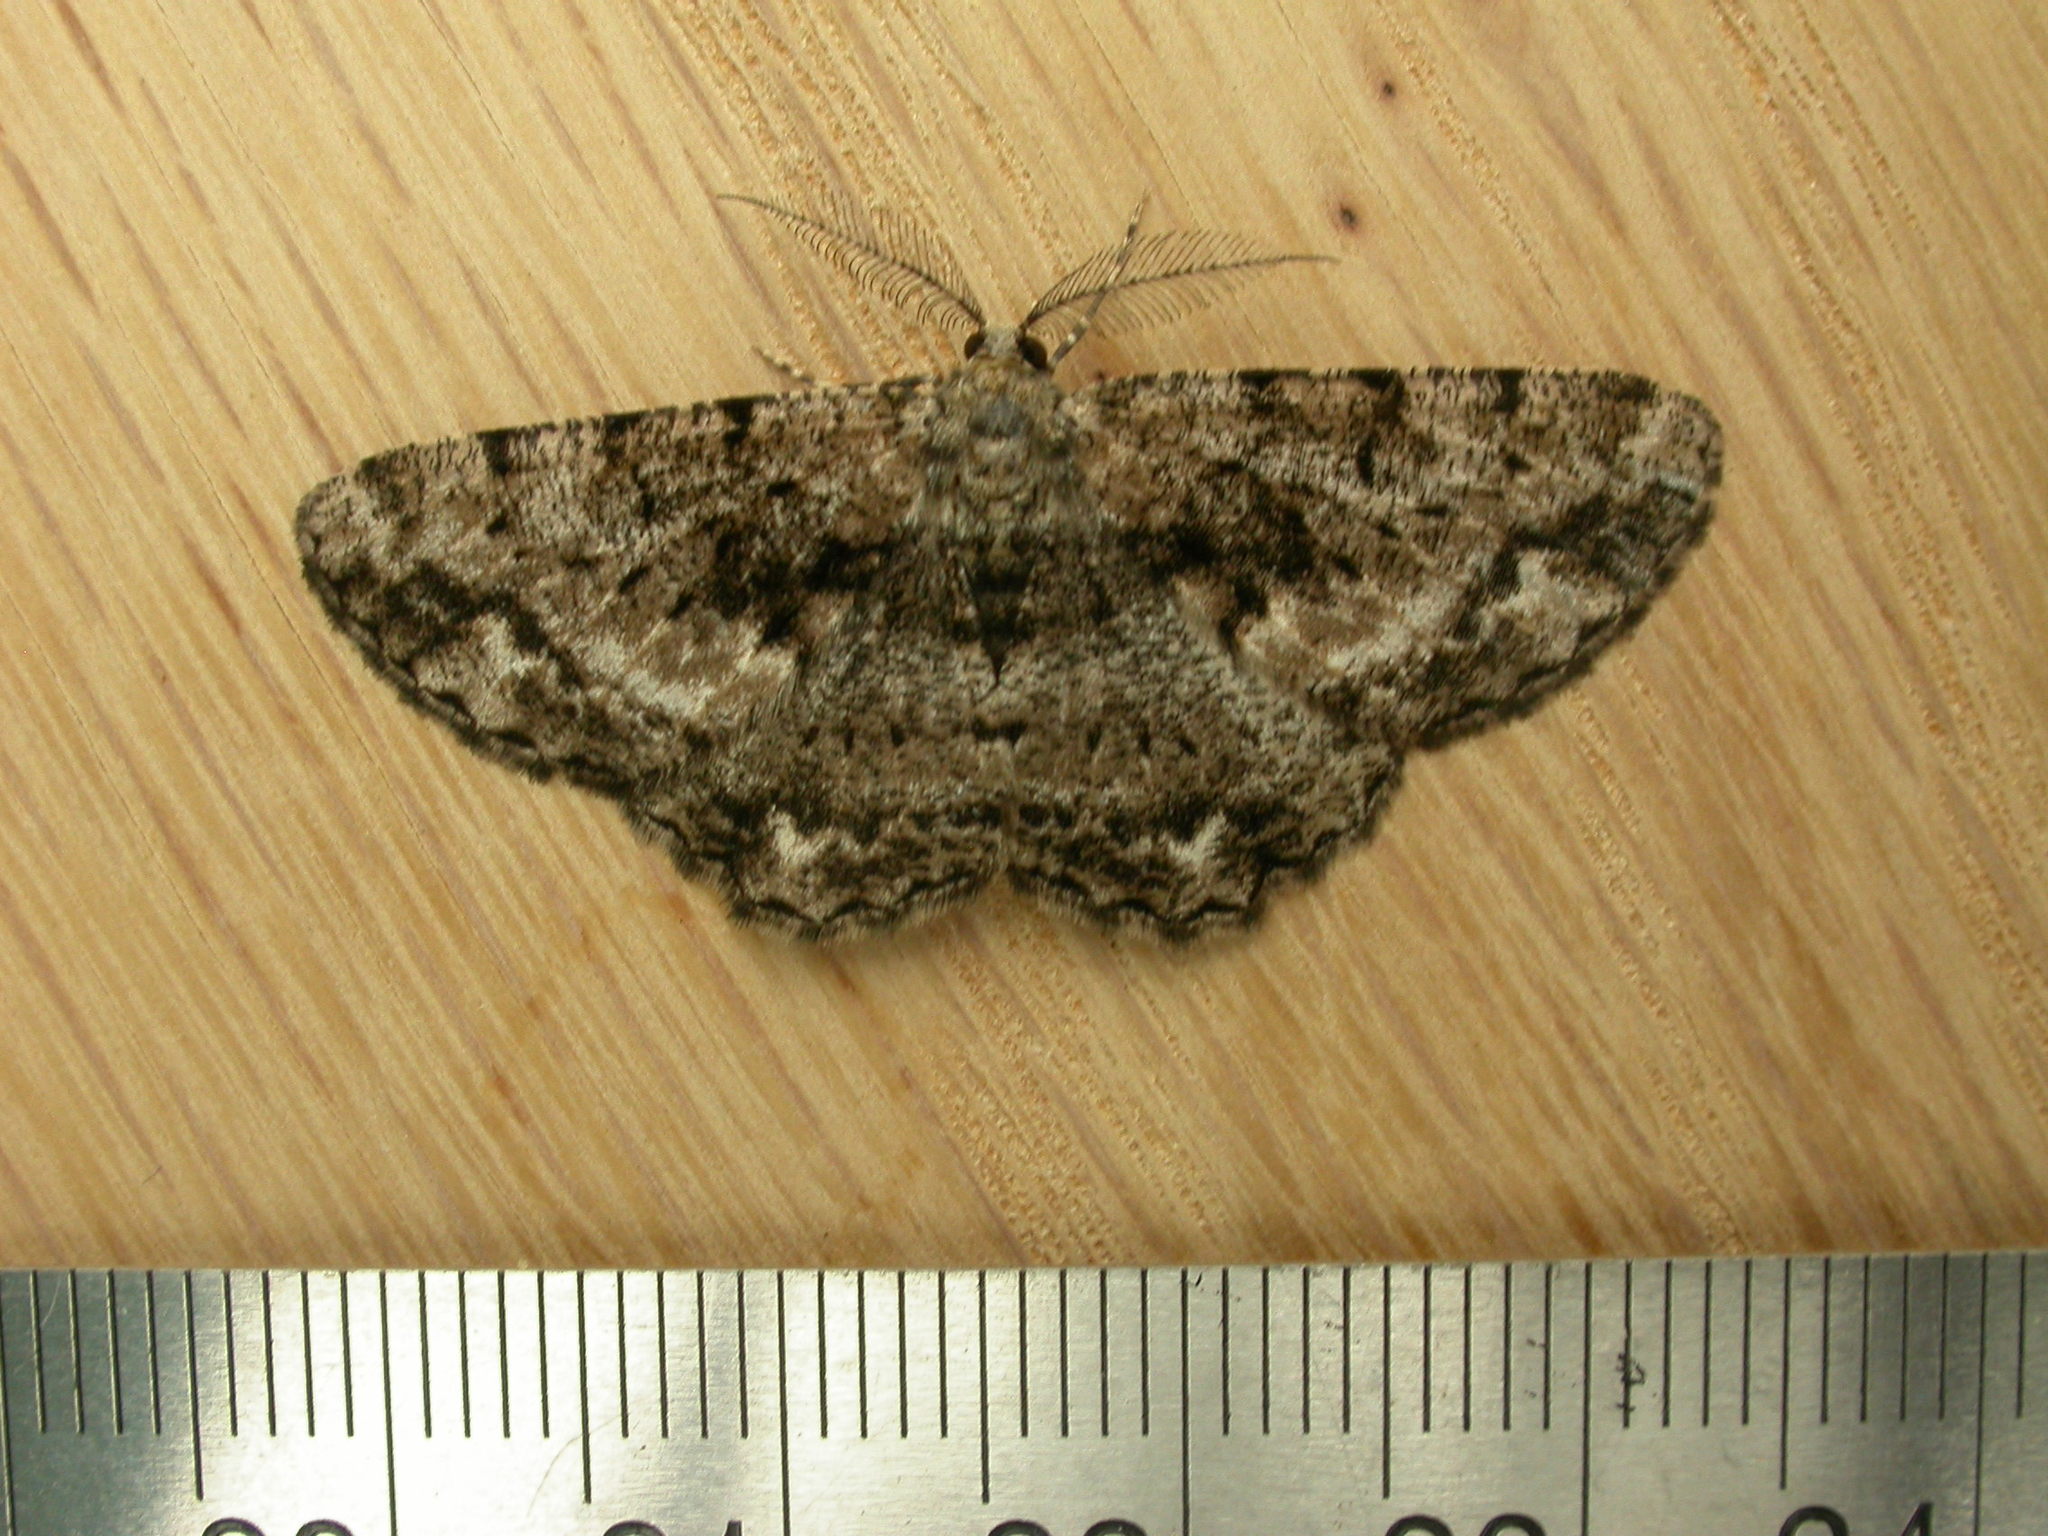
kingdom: Animalia
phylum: Arthropoda
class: Insecta
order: Lepidoptera
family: Geometridae
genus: Hypomecis
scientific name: Hypomecis externaria
